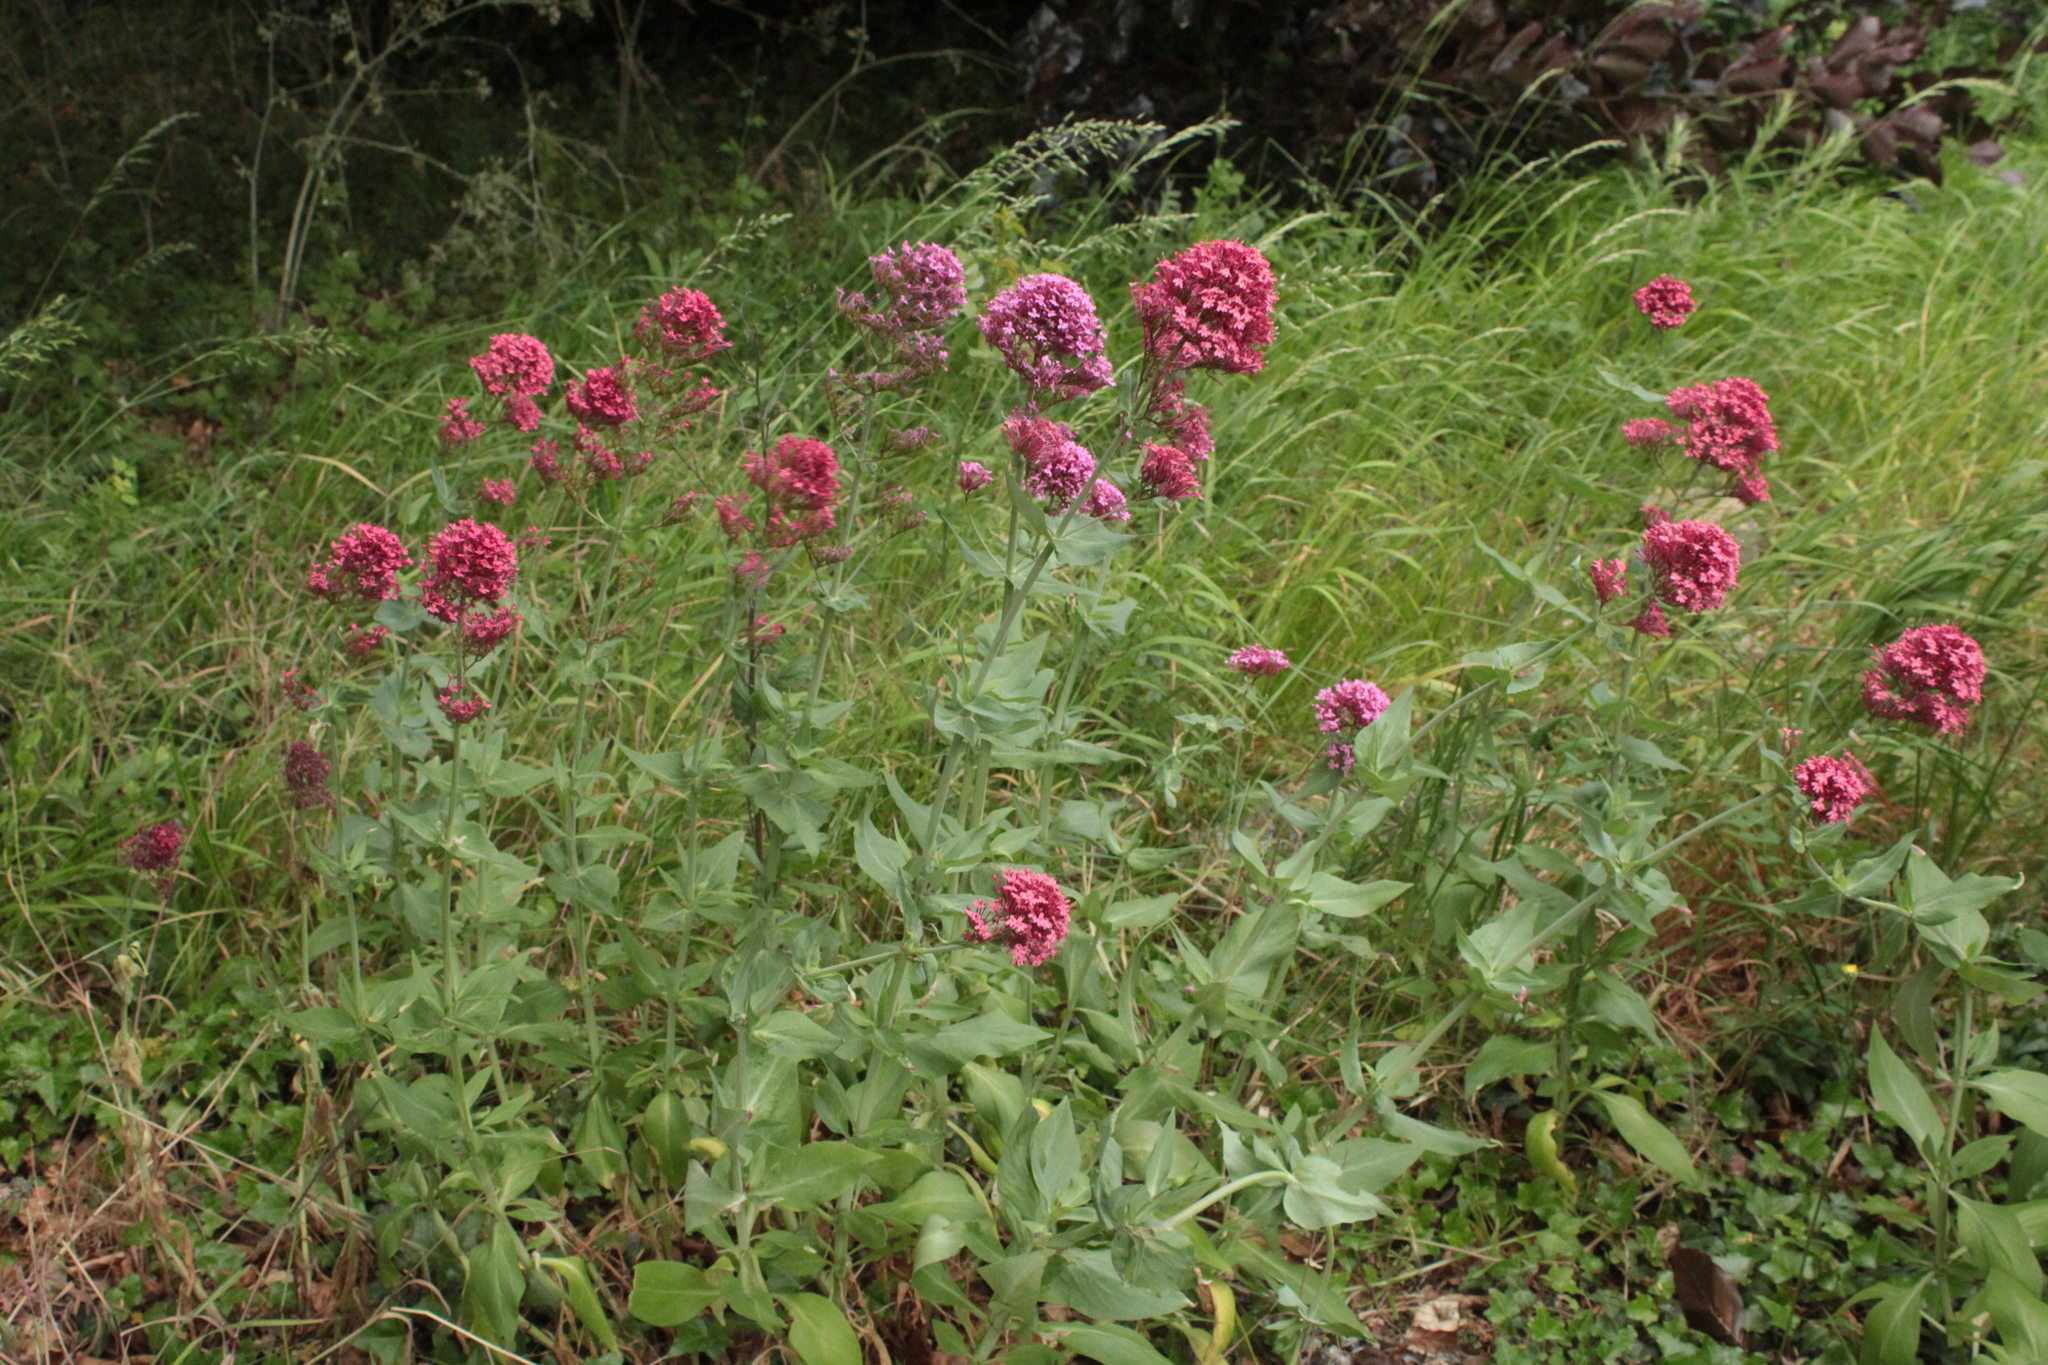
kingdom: Plantae
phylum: Tracheophyta
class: Magnoliopsida
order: Dipsacales
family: Caprifoliaceae
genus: Centranthus
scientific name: Centranthus ruber
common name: Red valerian
